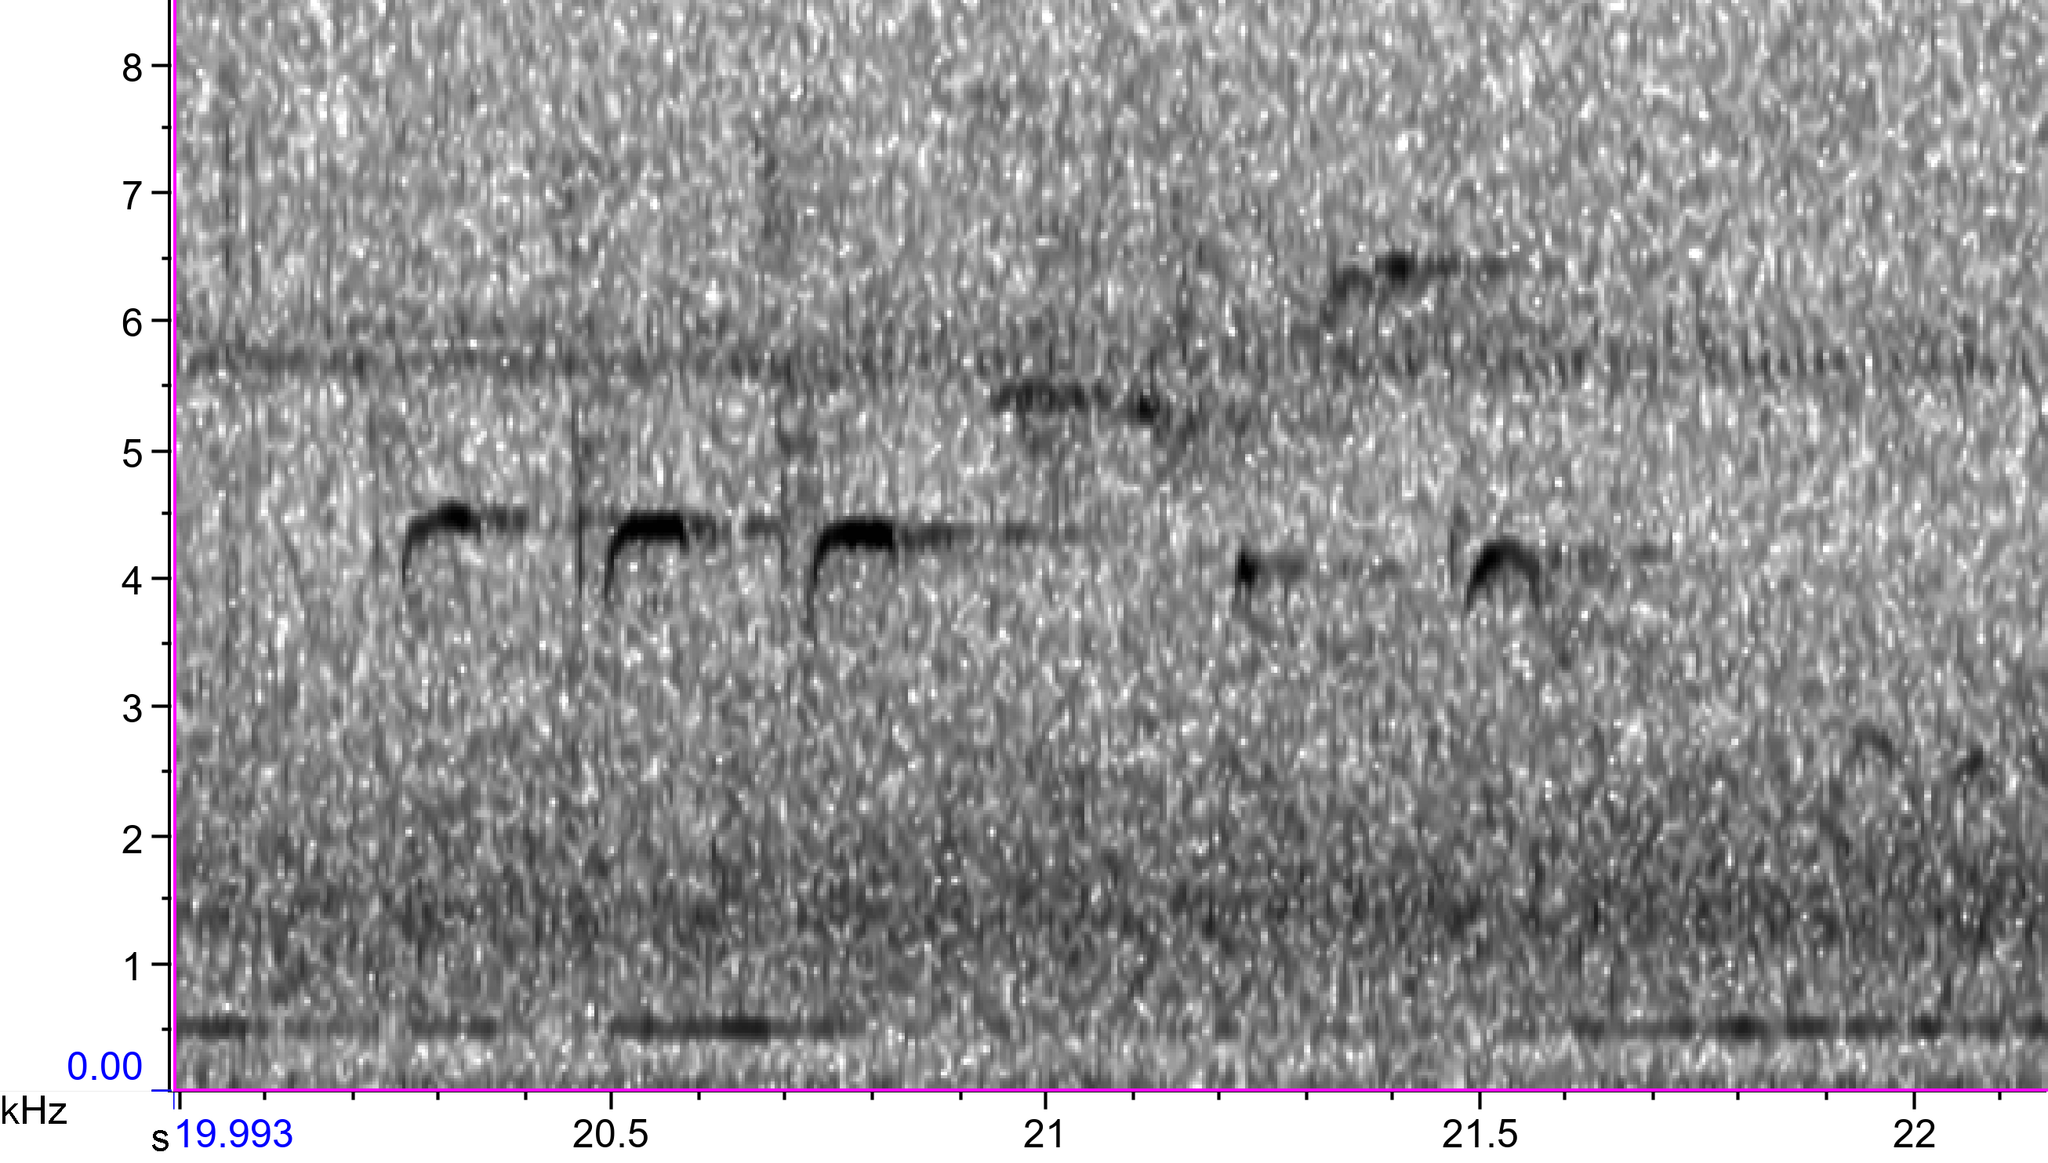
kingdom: Animalia
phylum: Chordata
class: Aves
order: Passeriformes
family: Passerellidae
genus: Melospiza
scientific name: Melospiza melodia
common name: Song sparrow
